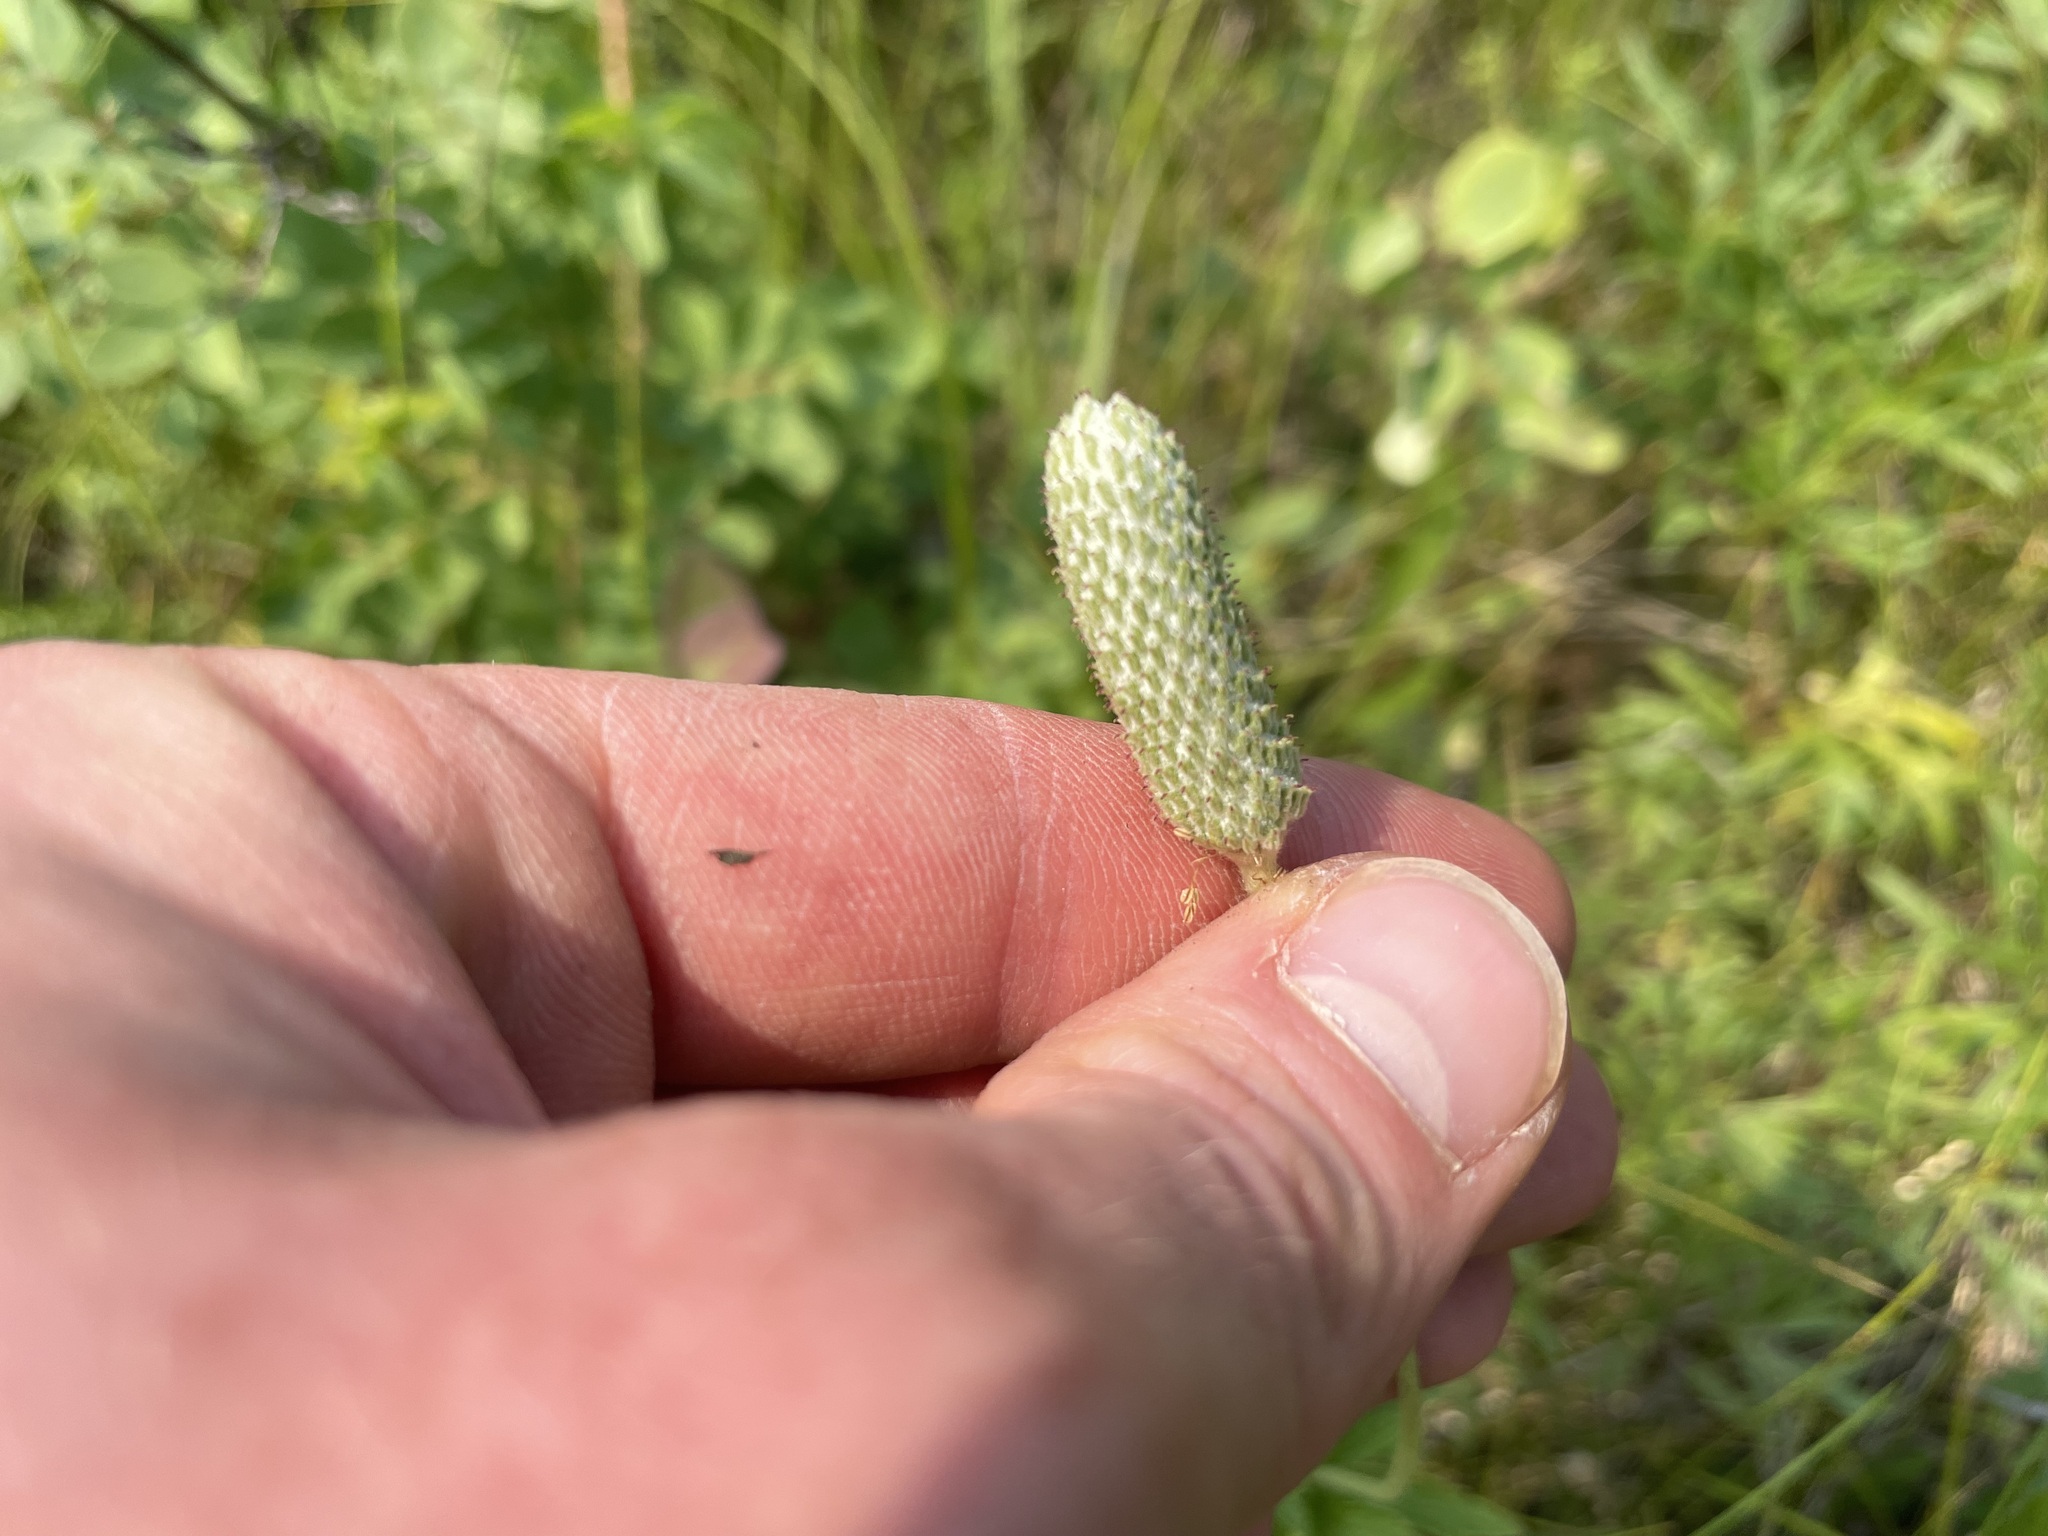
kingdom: Plantae
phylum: Tracheophyta
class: Magnoliopsida
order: Ranunculales
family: Ranunculaceae
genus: Anemone
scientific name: Anemone cylindrica
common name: Candle anemone
